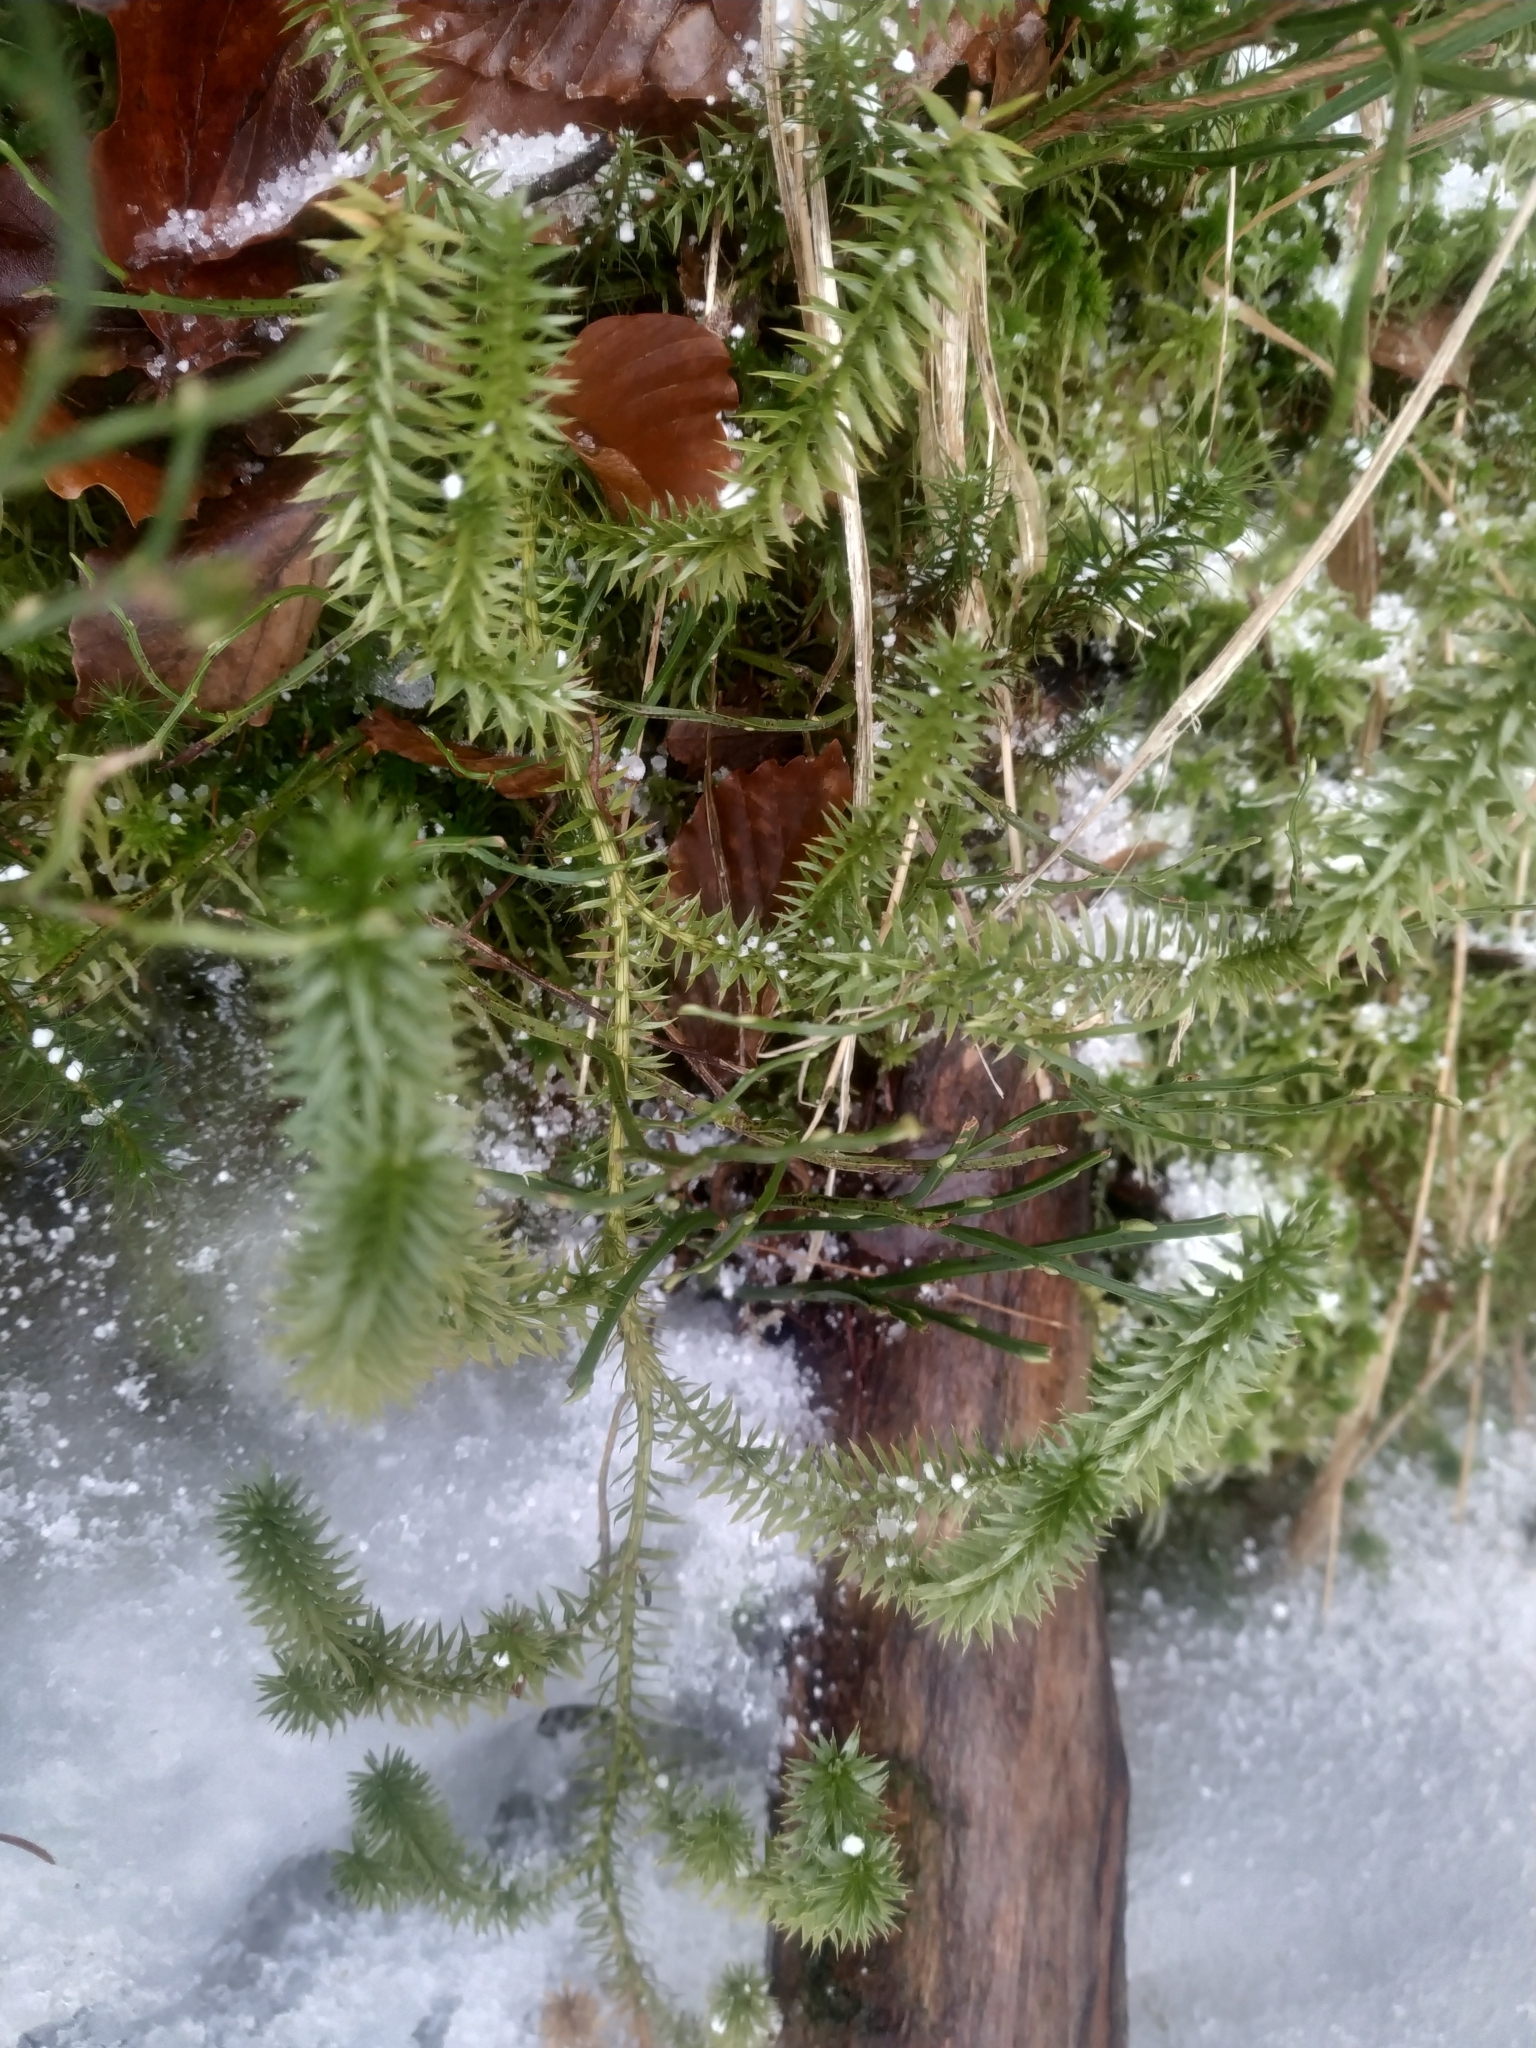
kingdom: Plantae
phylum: Tracheophyta
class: Lycopodiopsida
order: Lycopodiales
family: Lycopodiaceae
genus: Spinulum
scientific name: Spinulum annotinum
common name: Interrupted club-moss
